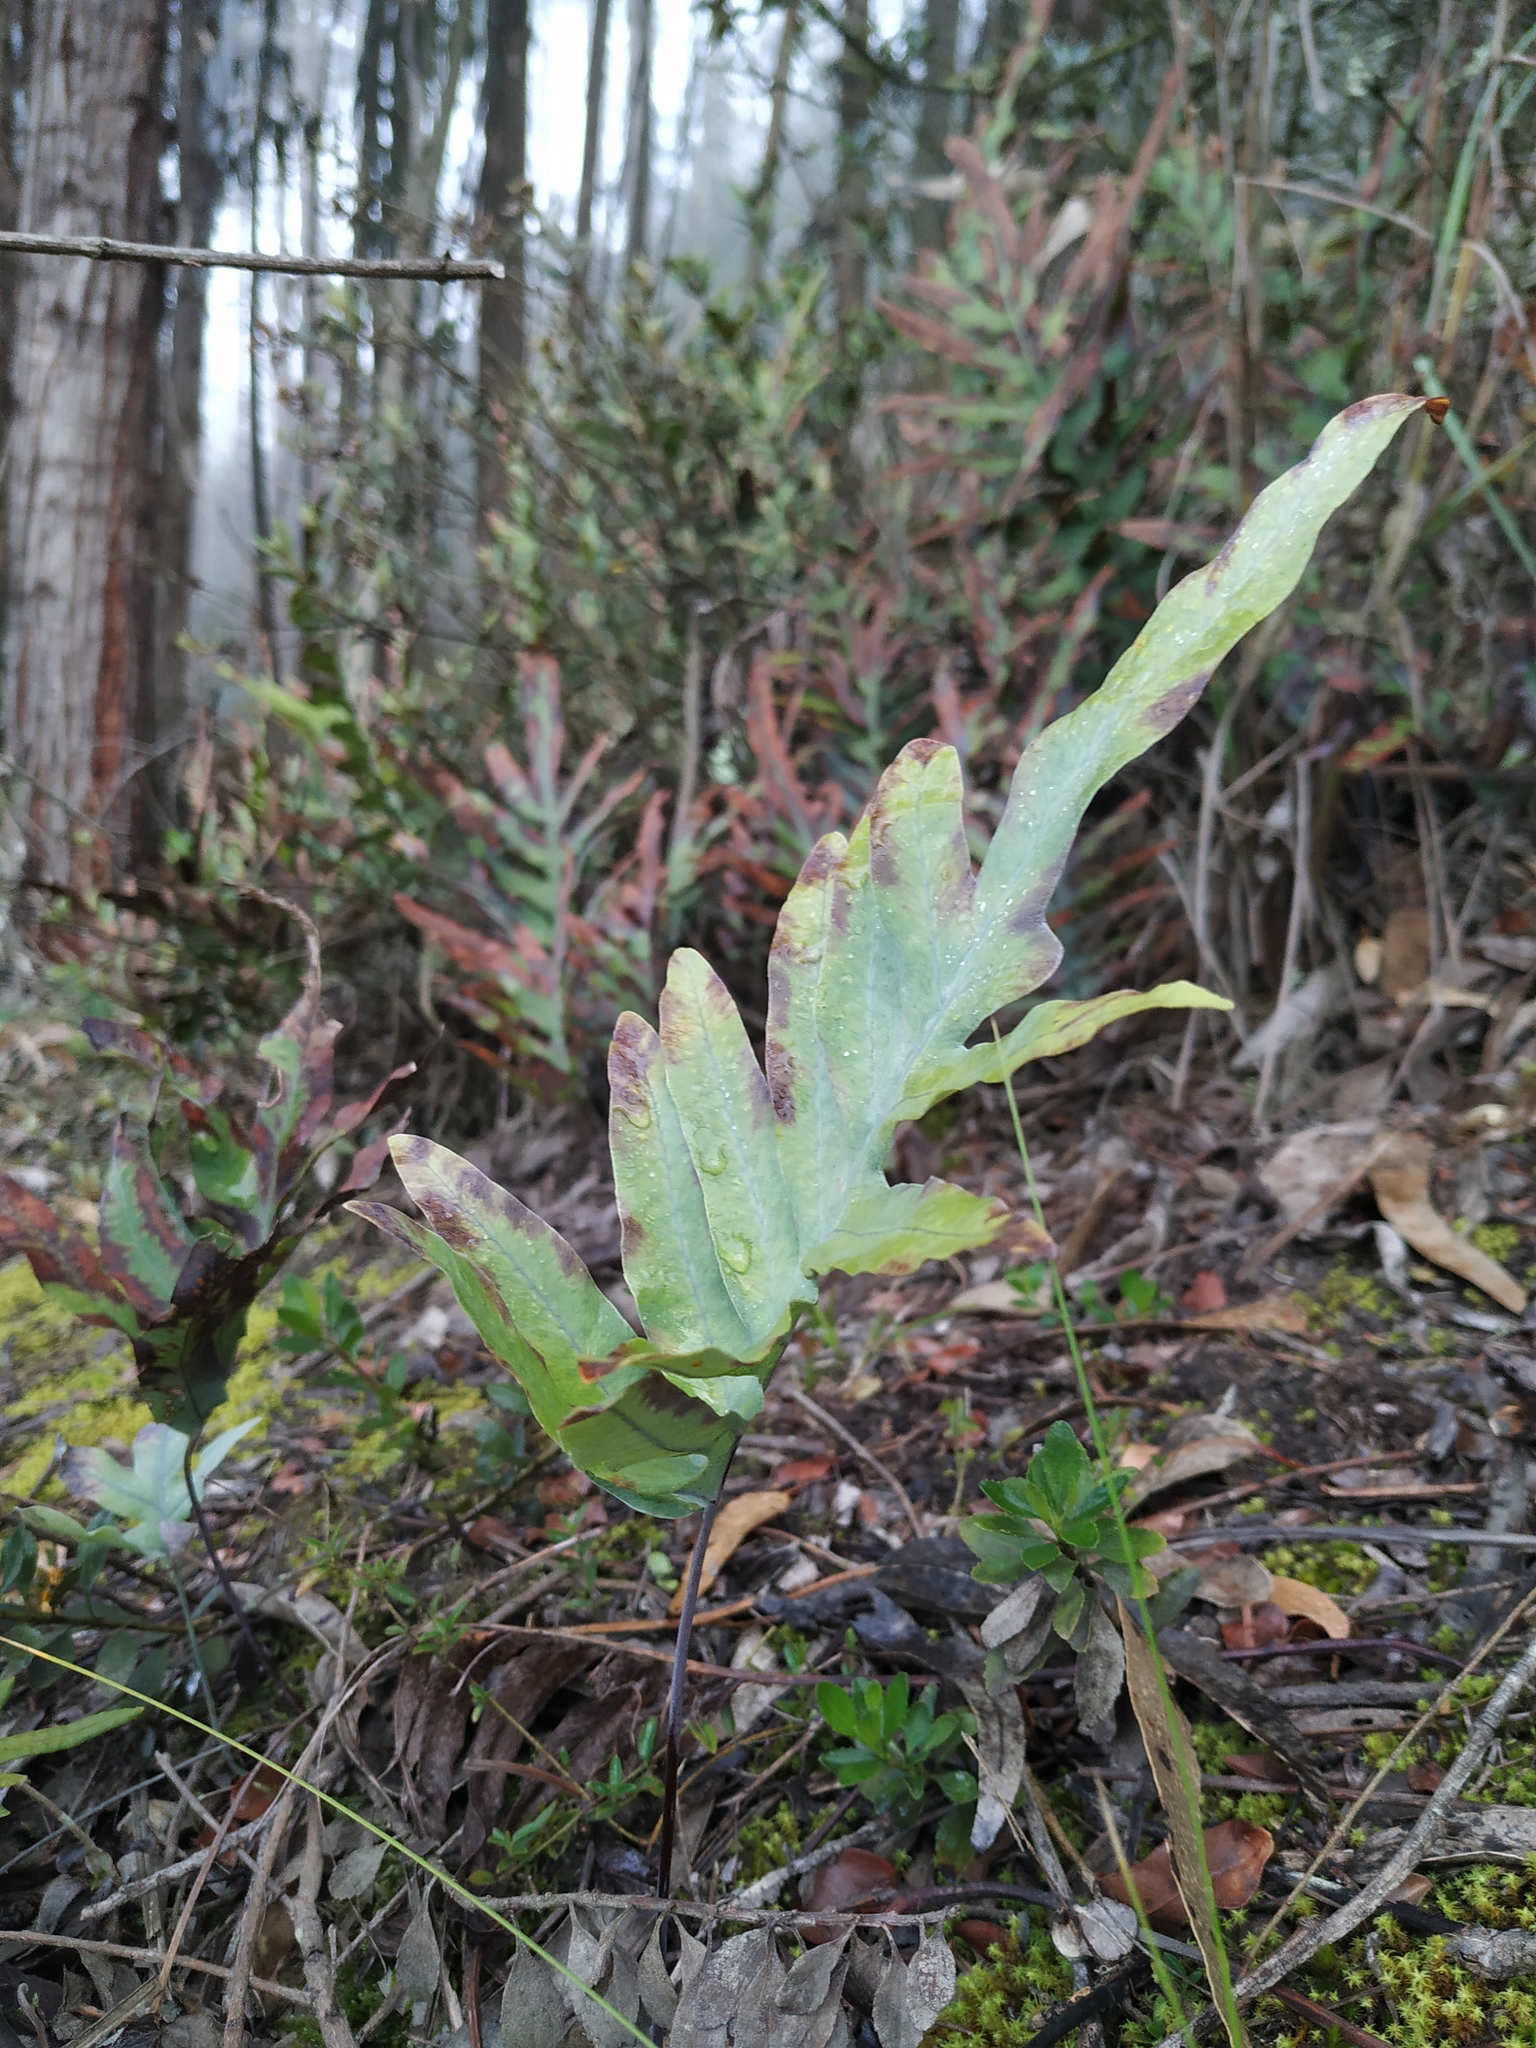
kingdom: Plantae
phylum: Tracheophyta
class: Polypodiopsida
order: Polypodiales
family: Polypodiaceae
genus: Phlebodium
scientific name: Phlebodium pseudoaureum
